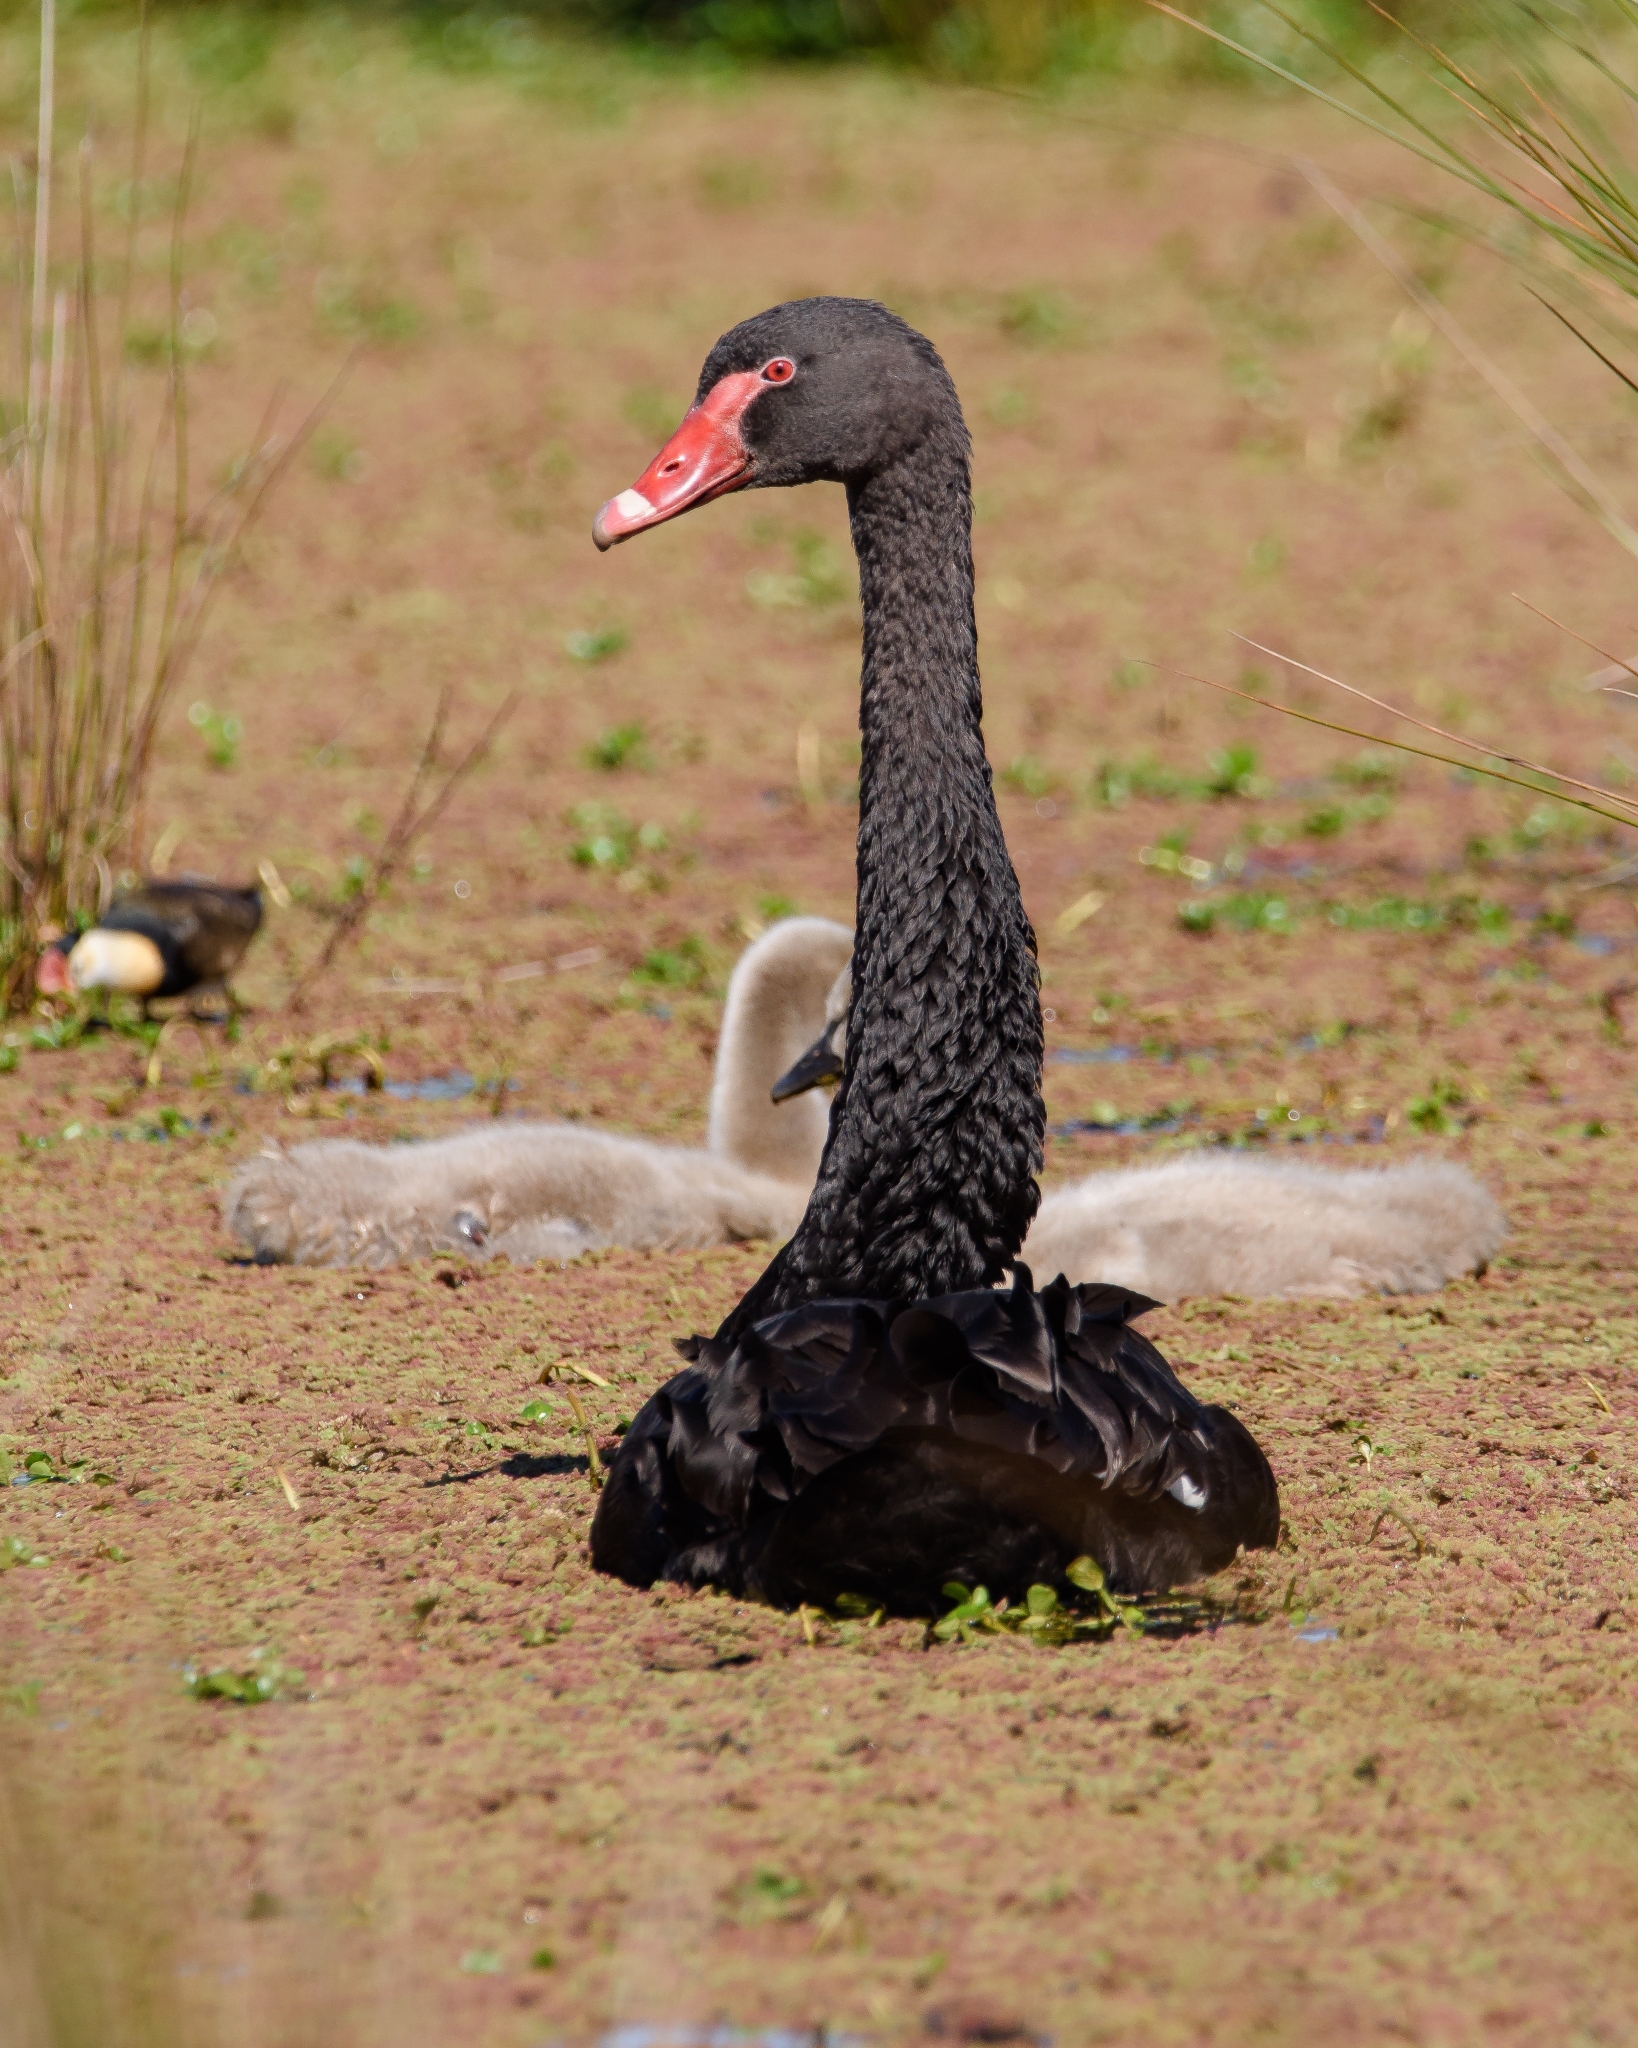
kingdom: Animalia
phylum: Chordata
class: Aves
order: Anseriformes
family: Anatidae
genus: Cygnus
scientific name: Cygnus atratus
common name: Black swan
